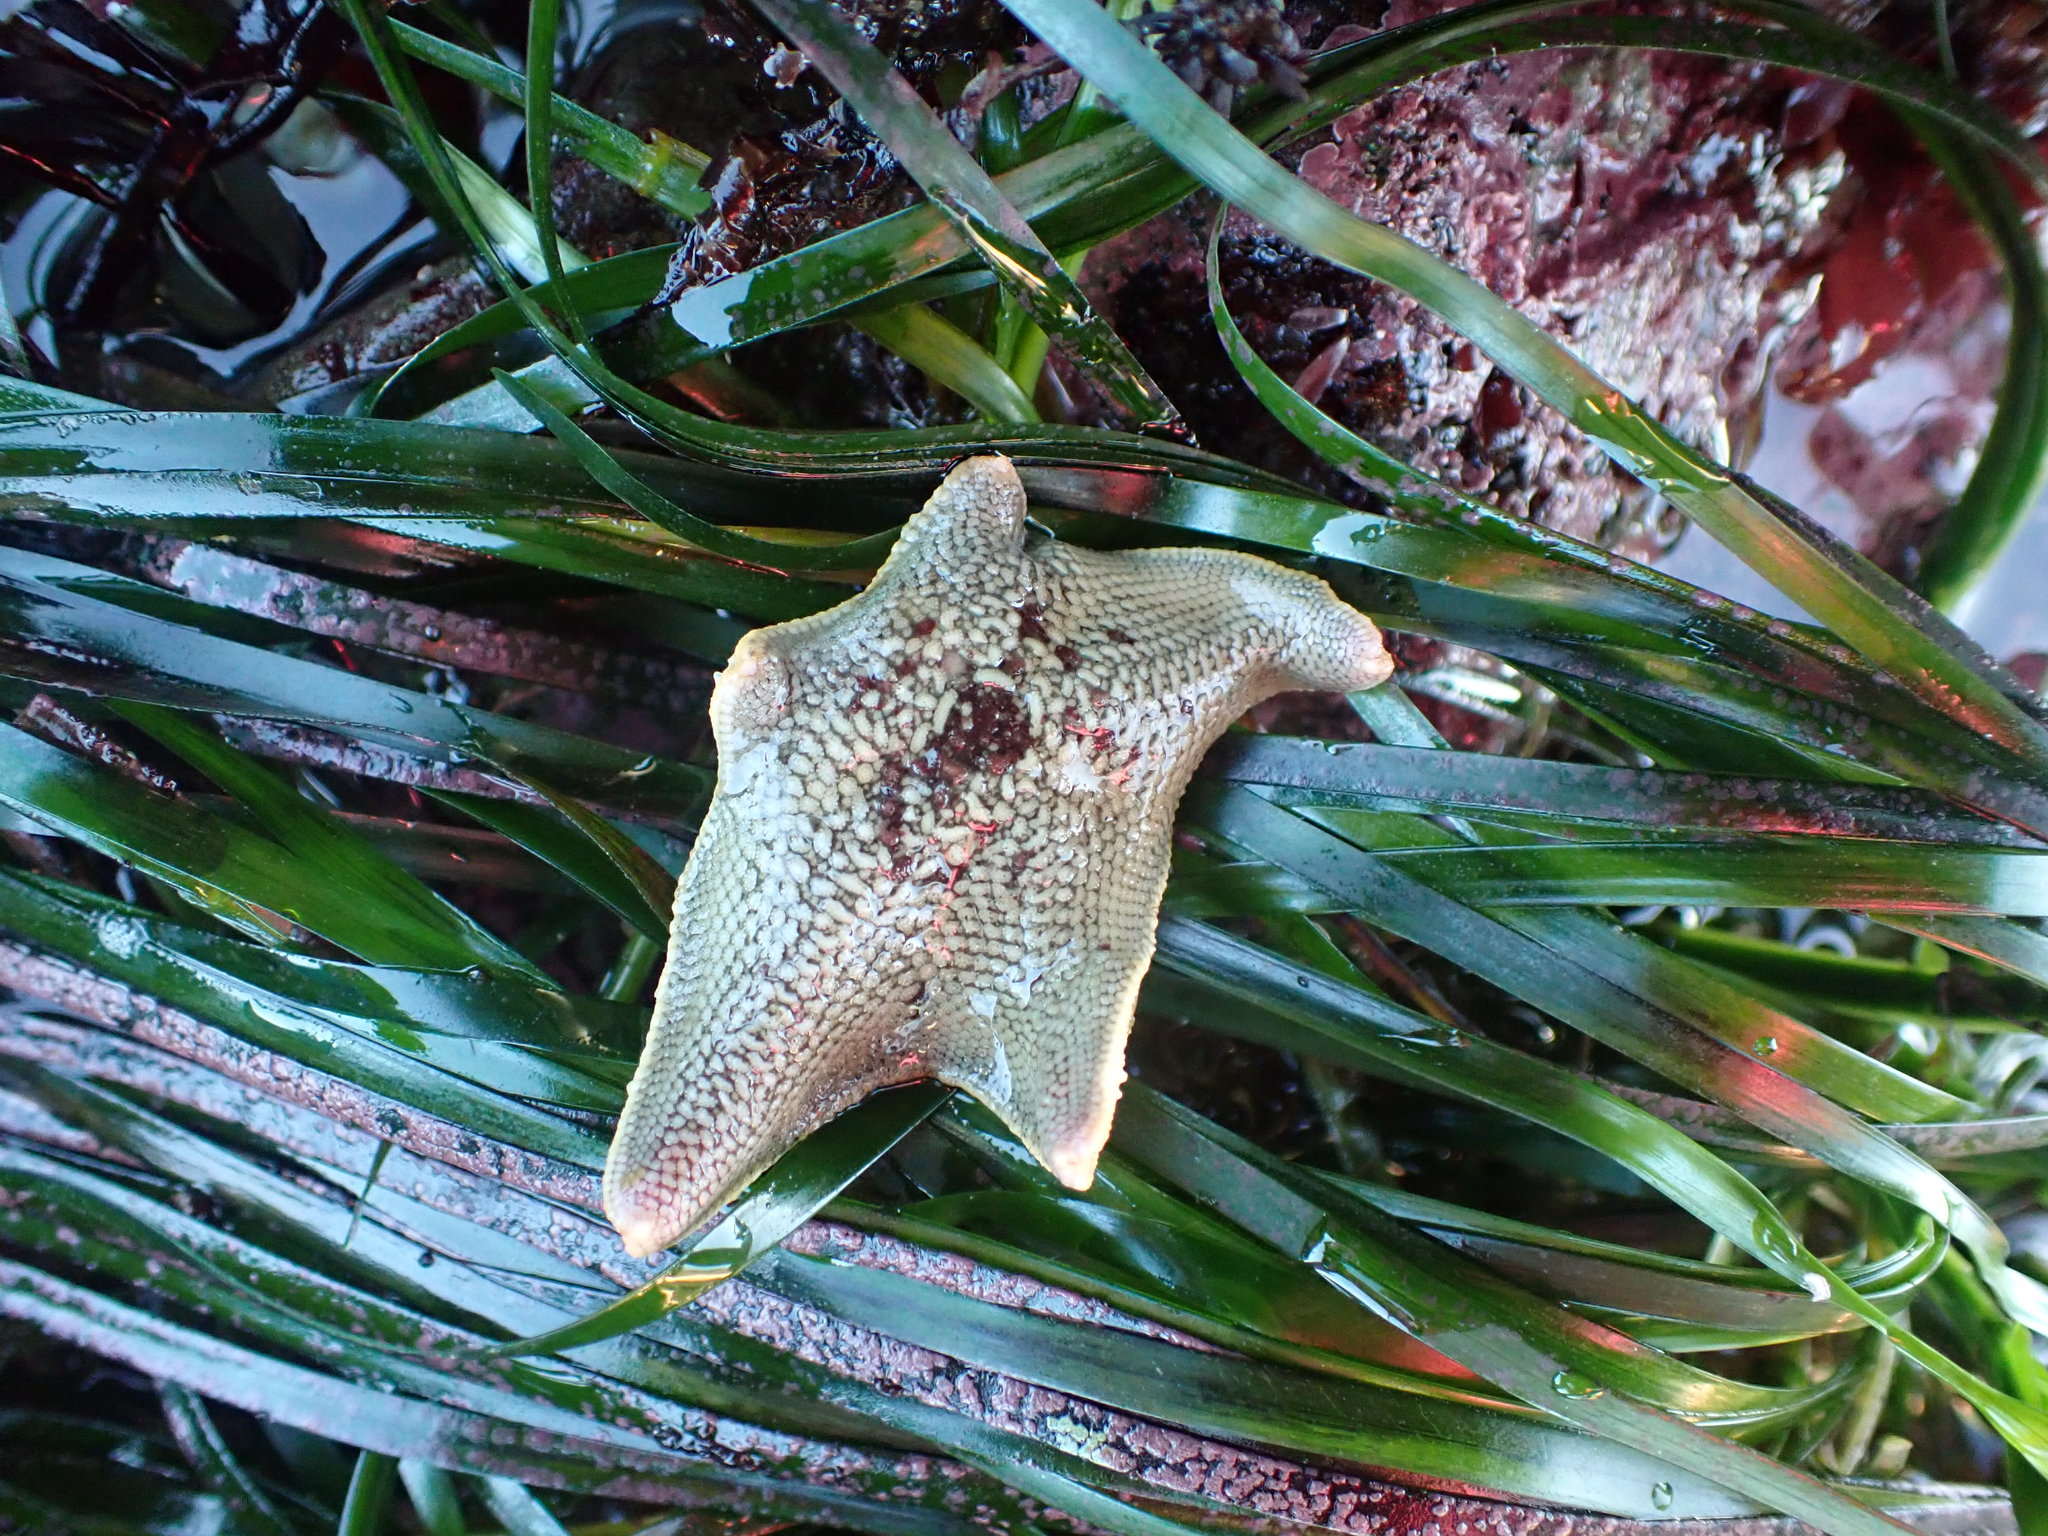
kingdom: Animalia
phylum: Echinodermata
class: Asteroidea
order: Valvatida
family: Asterinidae
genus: Patiria
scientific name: Patiria miniata
